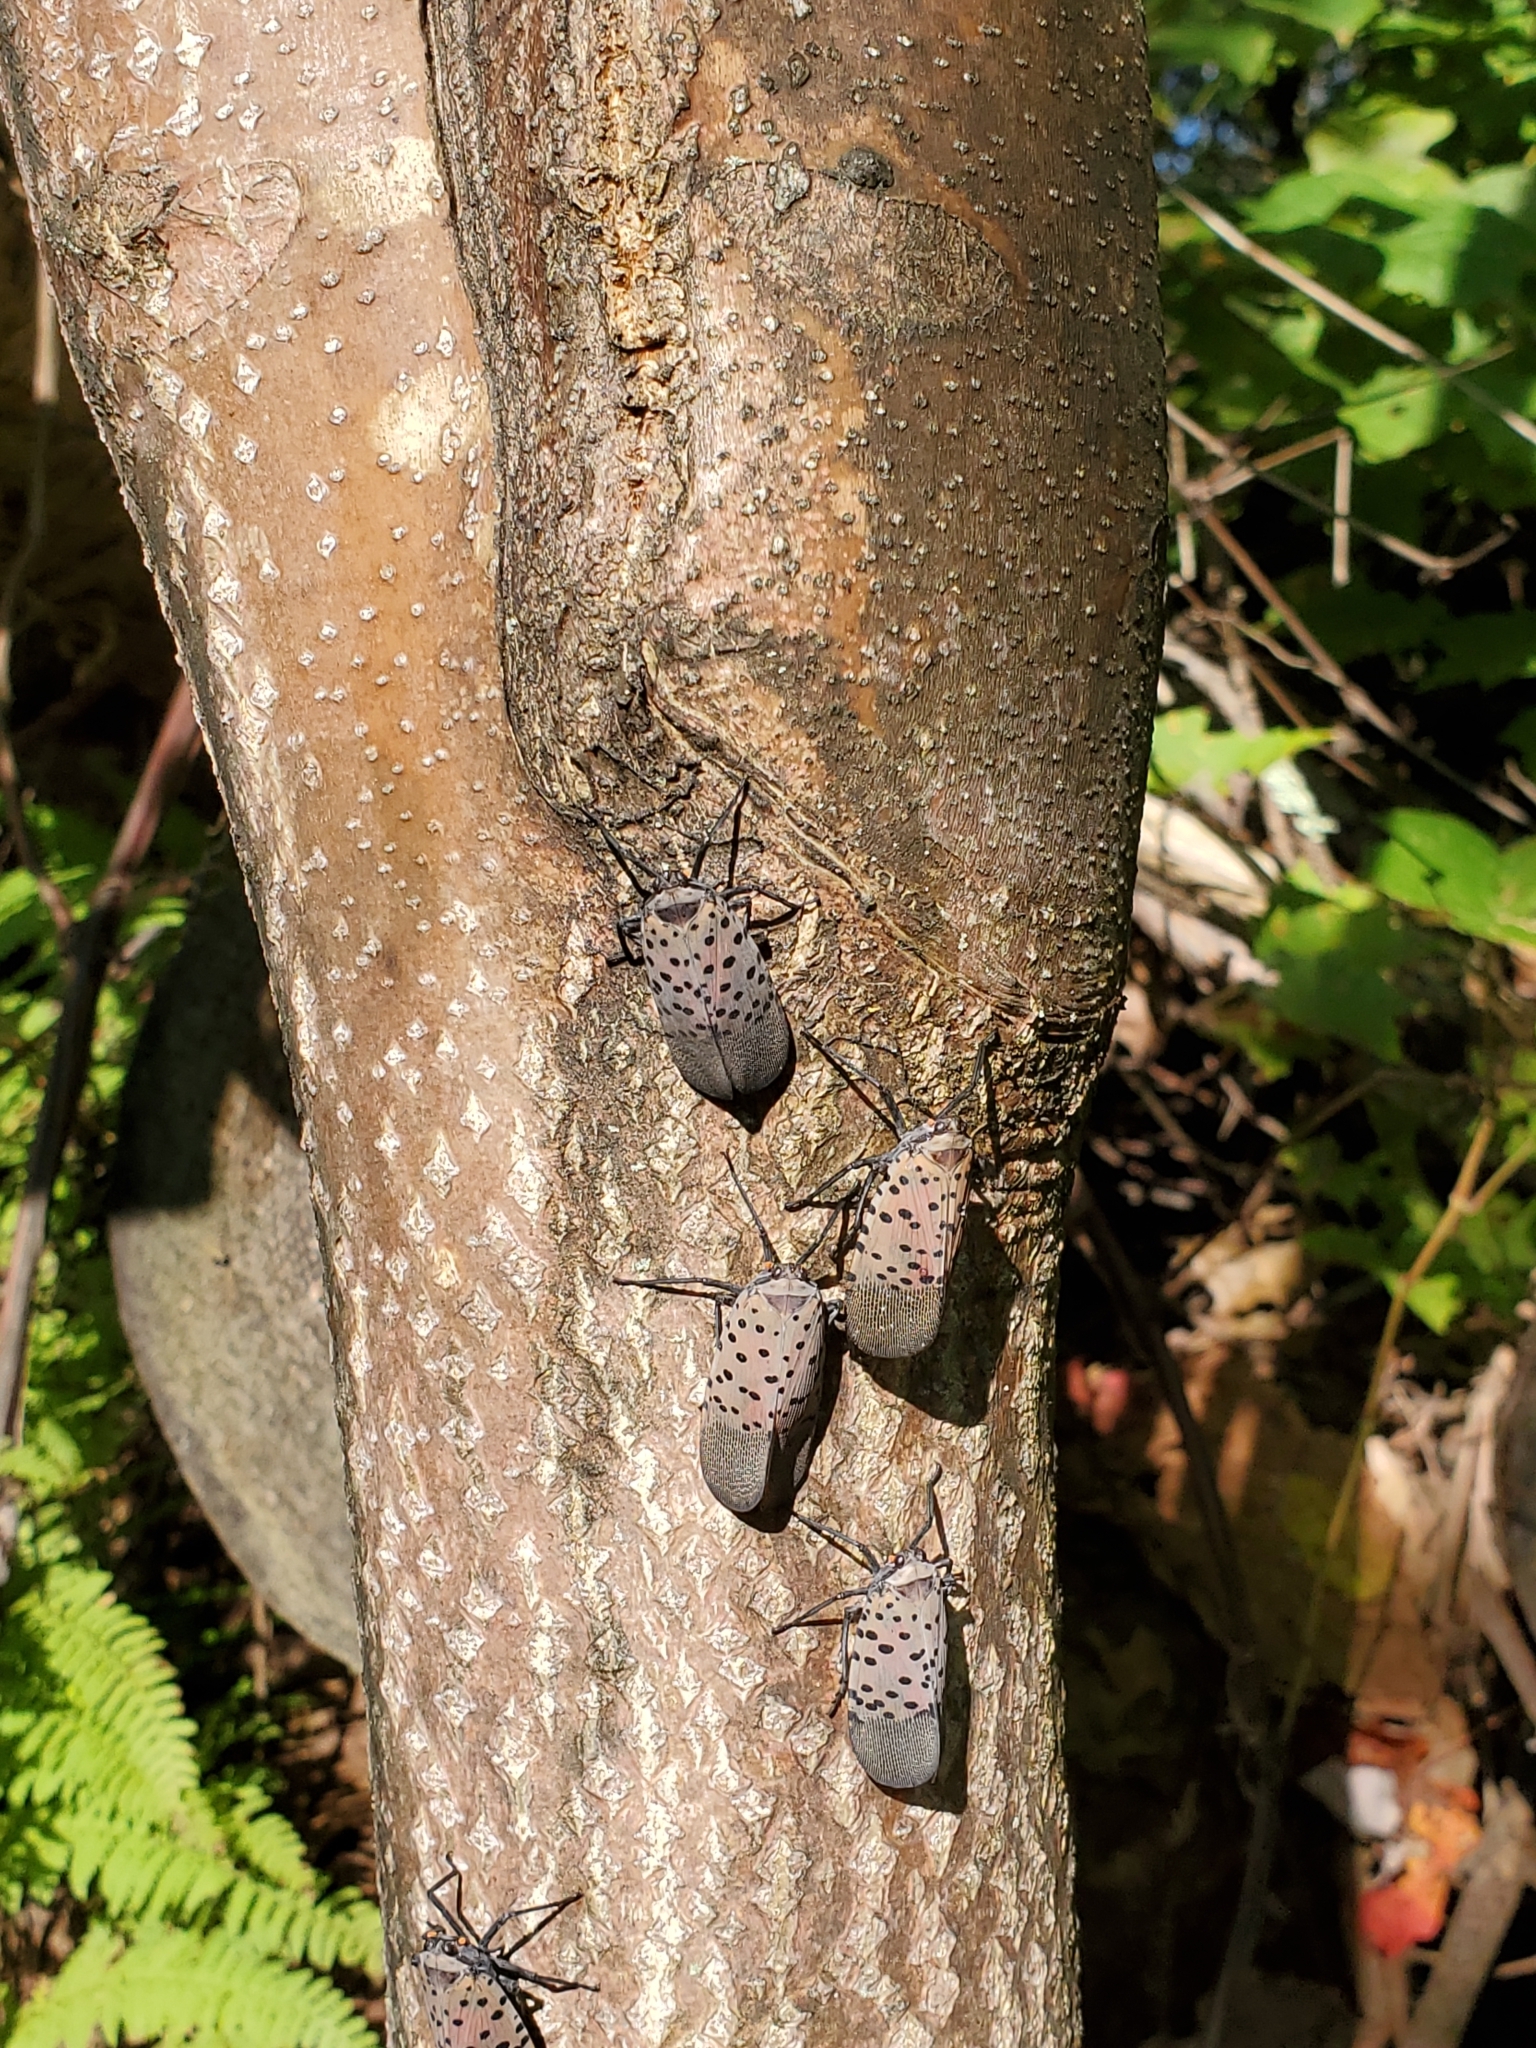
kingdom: Animalia
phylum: Arthropoda
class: Insecta
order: Hemiptera
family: Fulgoridae
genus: Lycorma
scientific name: Lycorma delicatula
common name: Spotted lanternfly
